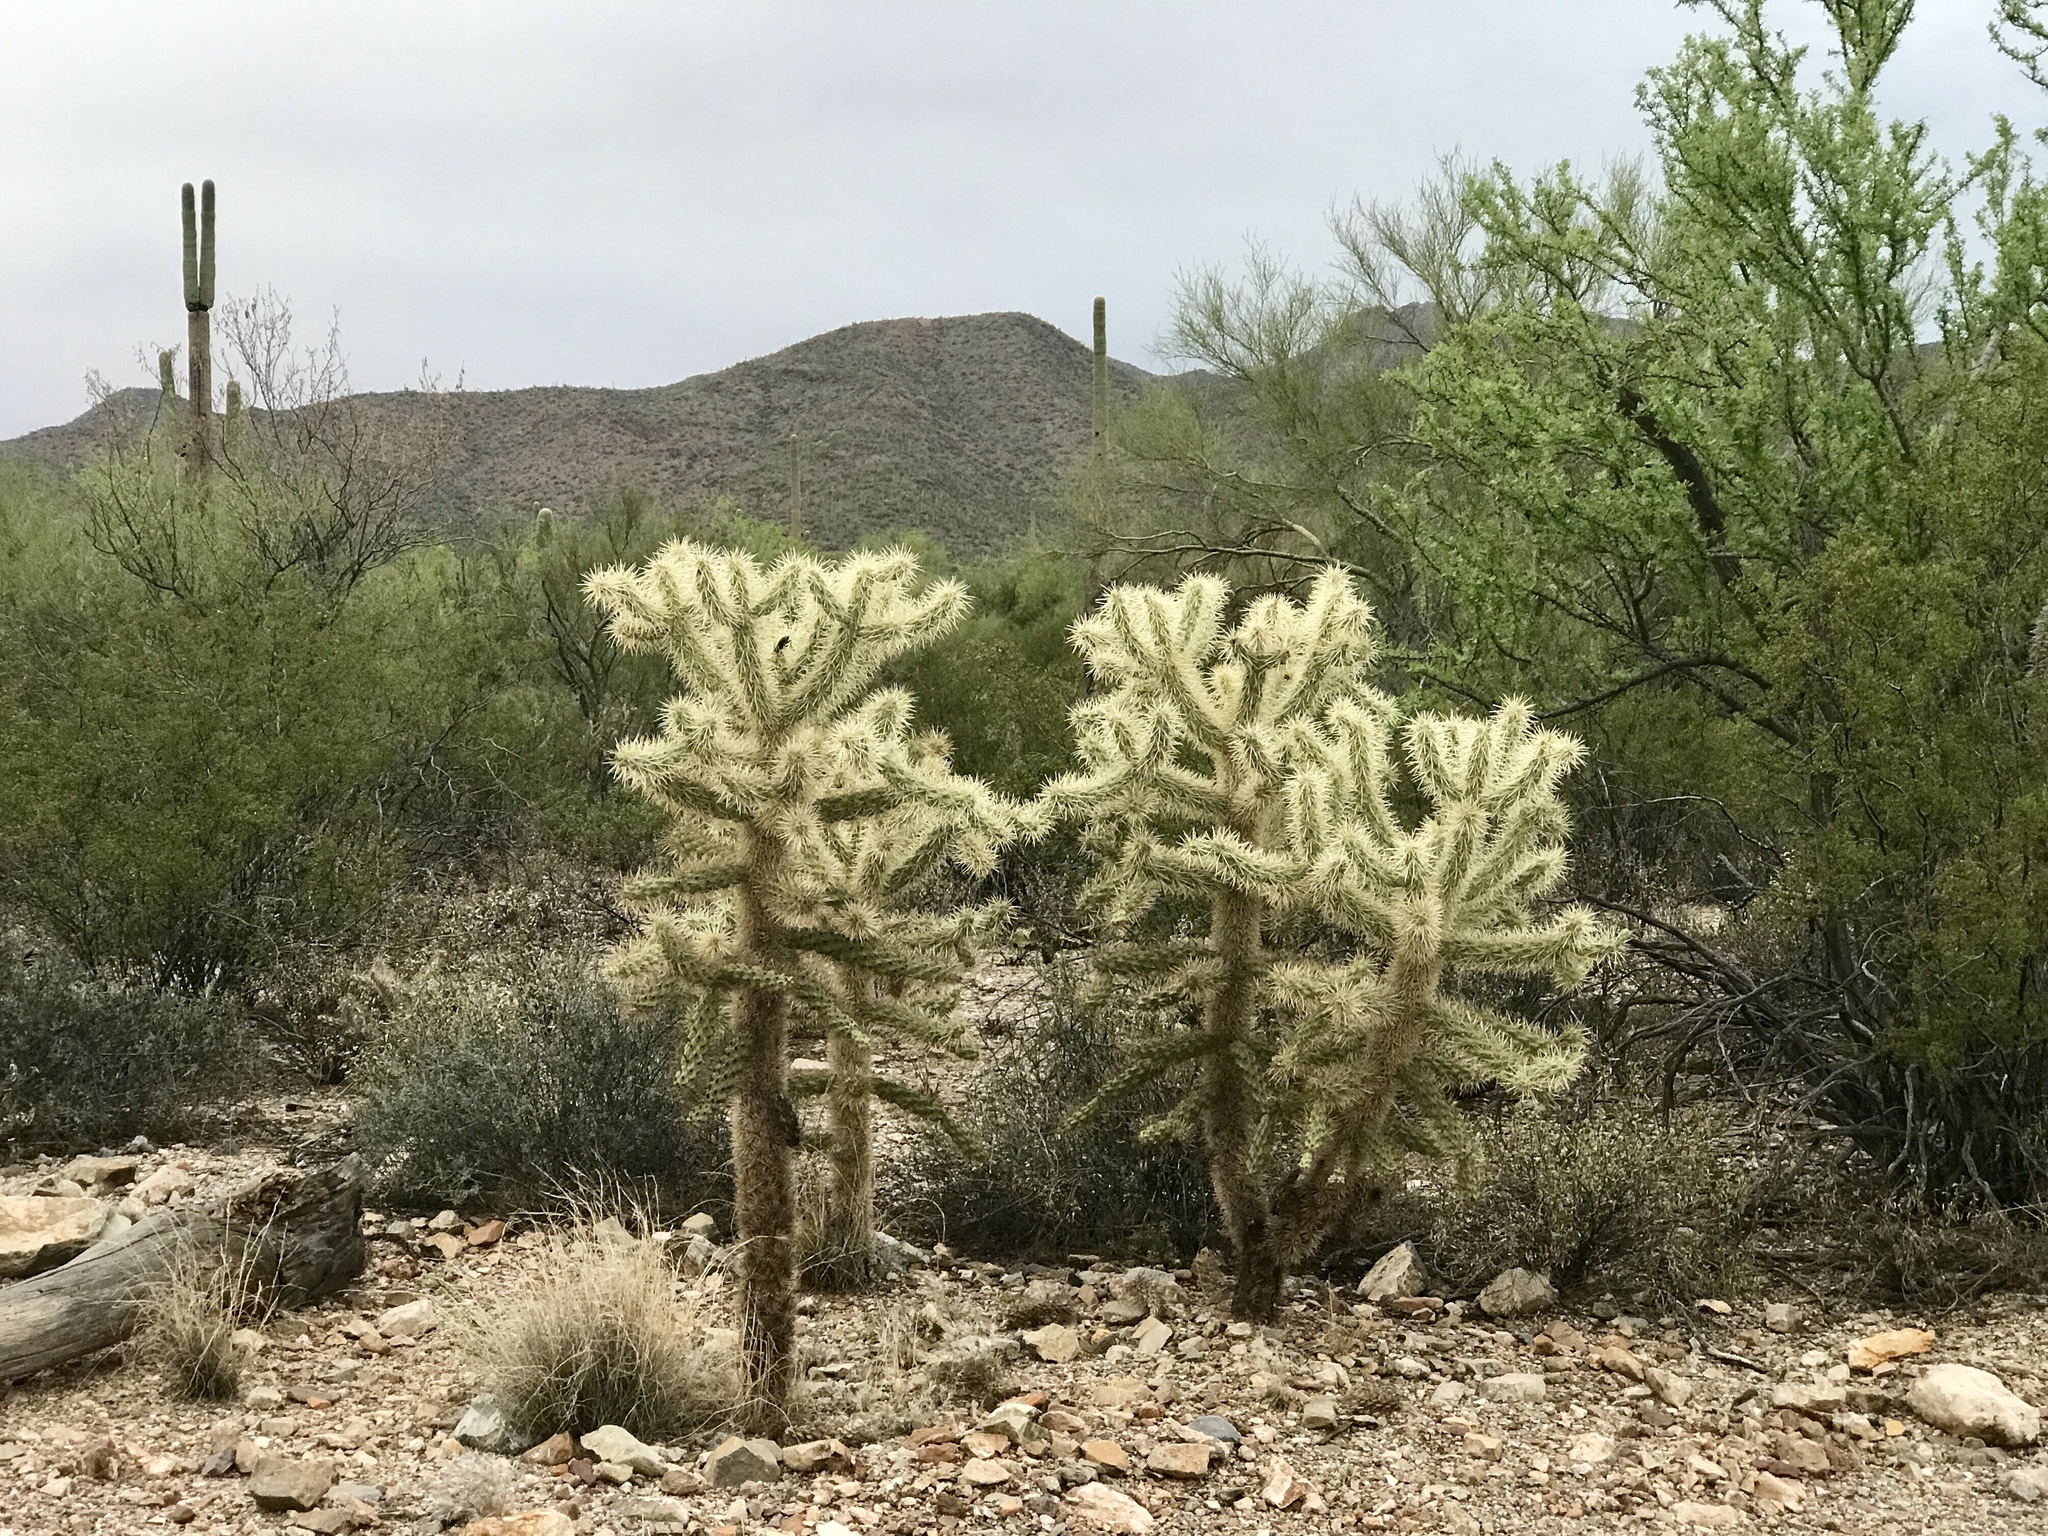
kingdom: Plantae
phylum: Tracheophyta
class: Magnoliopsida
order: Caryophyllales
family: Cactaceae
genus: Cylindropuntia
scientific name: Cylindropuntia fosbergii
